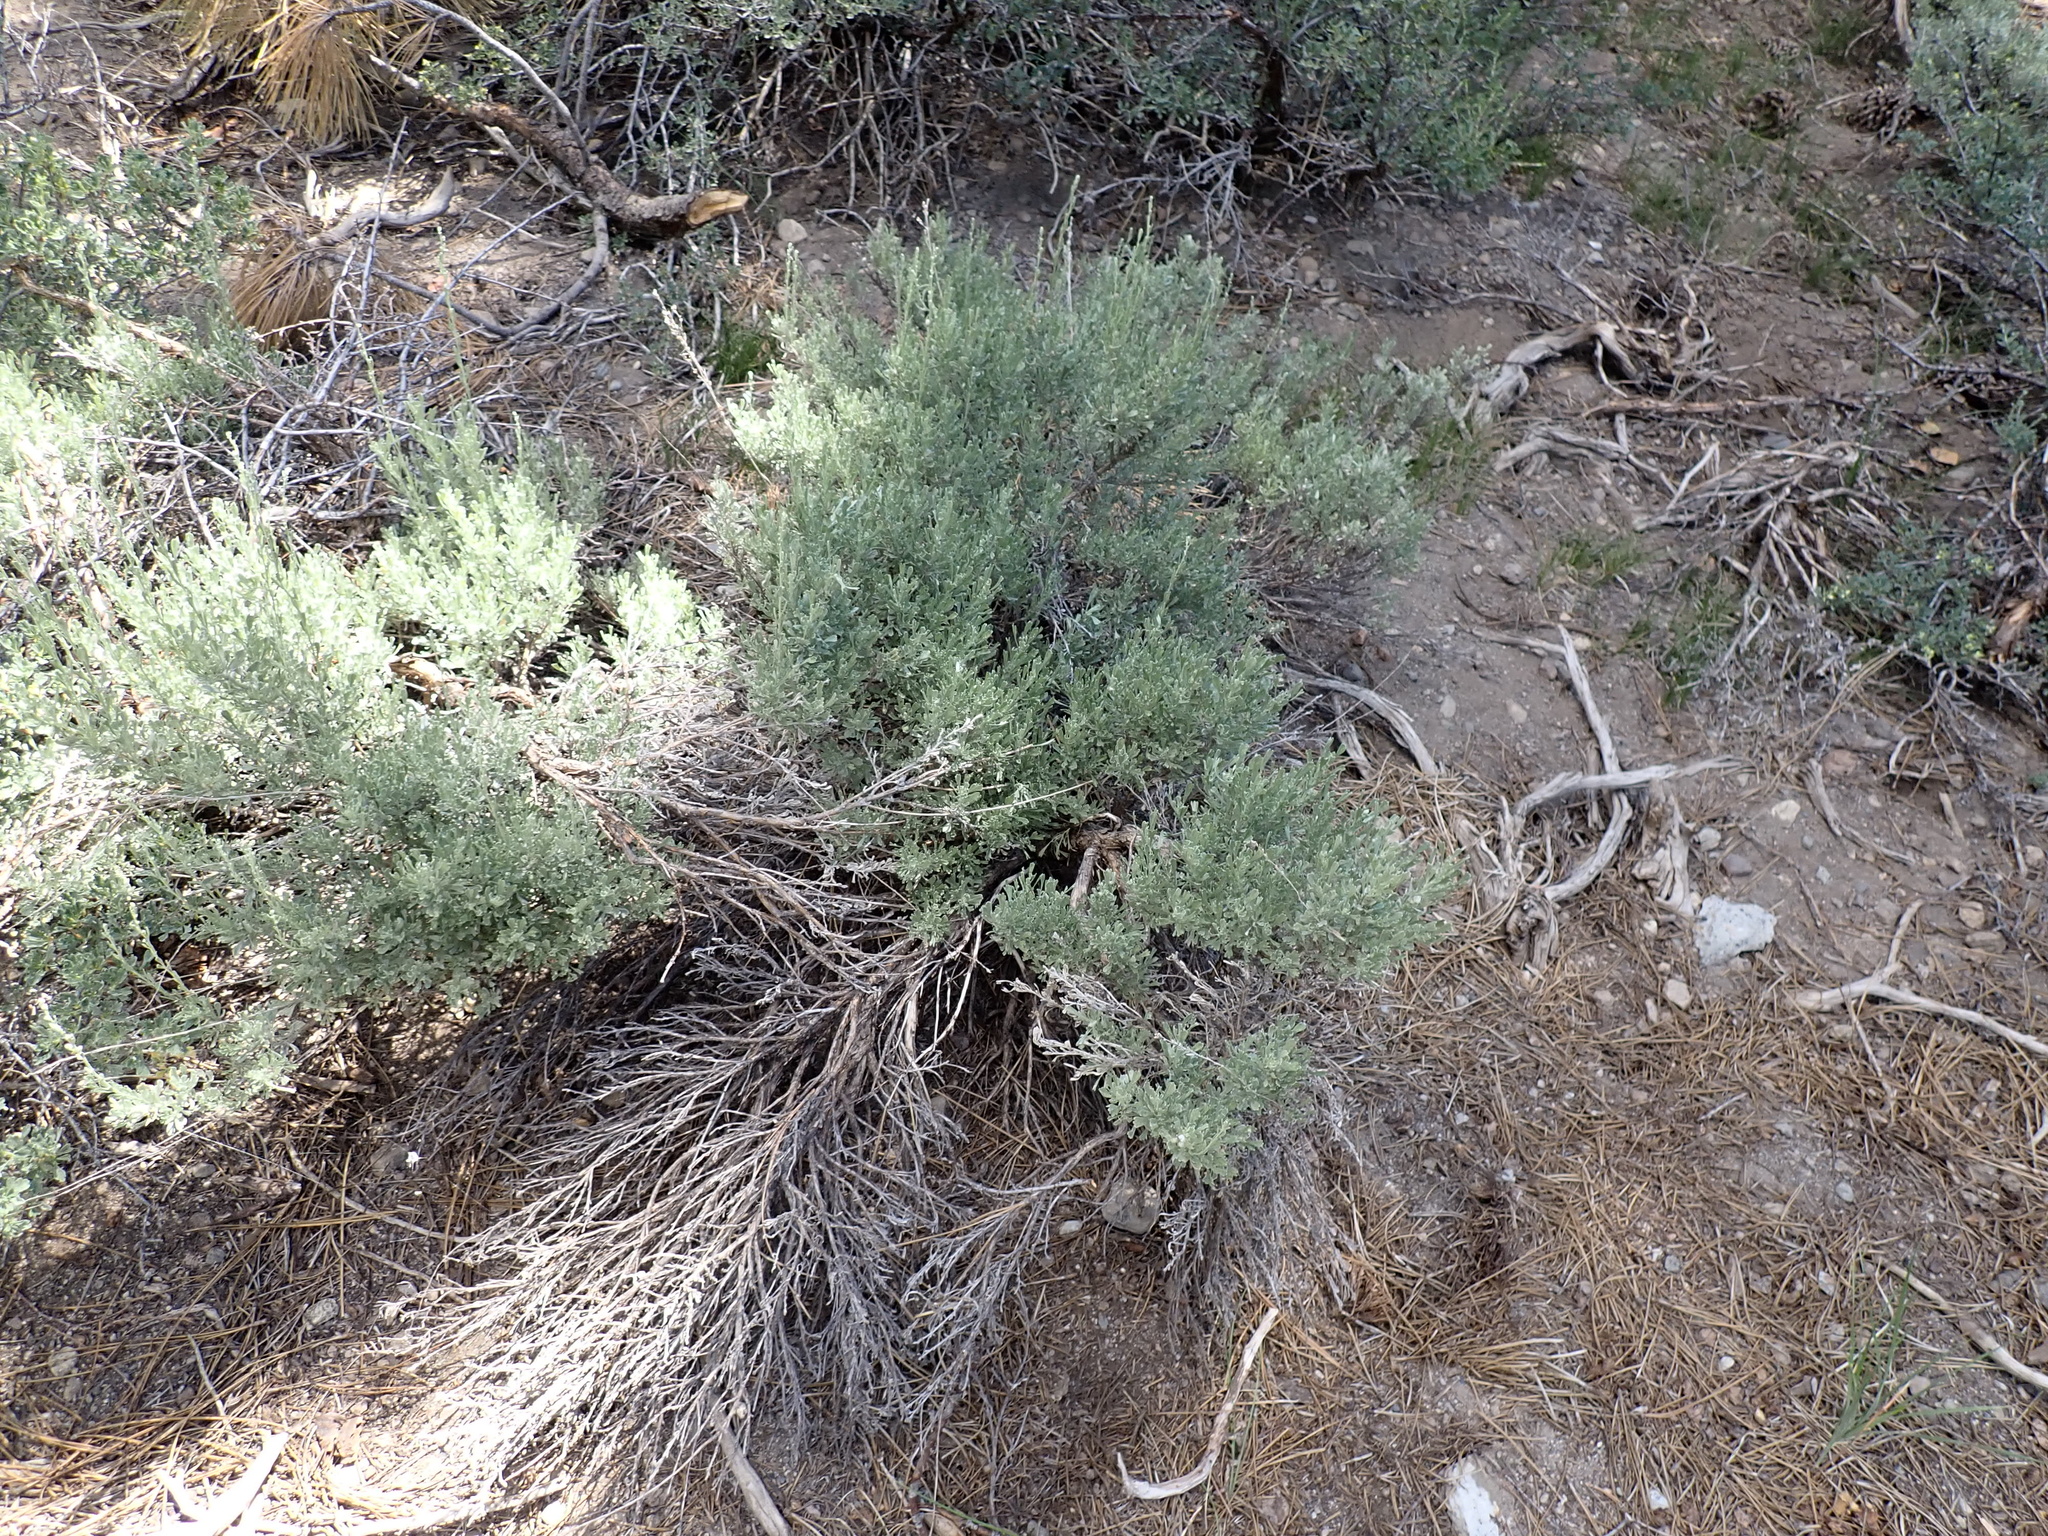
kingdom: Plantae
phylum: Tracheophyta
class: Magnoliopsida
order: Asterales
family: Asteraceae
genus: Artemisia
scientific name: Artemisia tridentata
